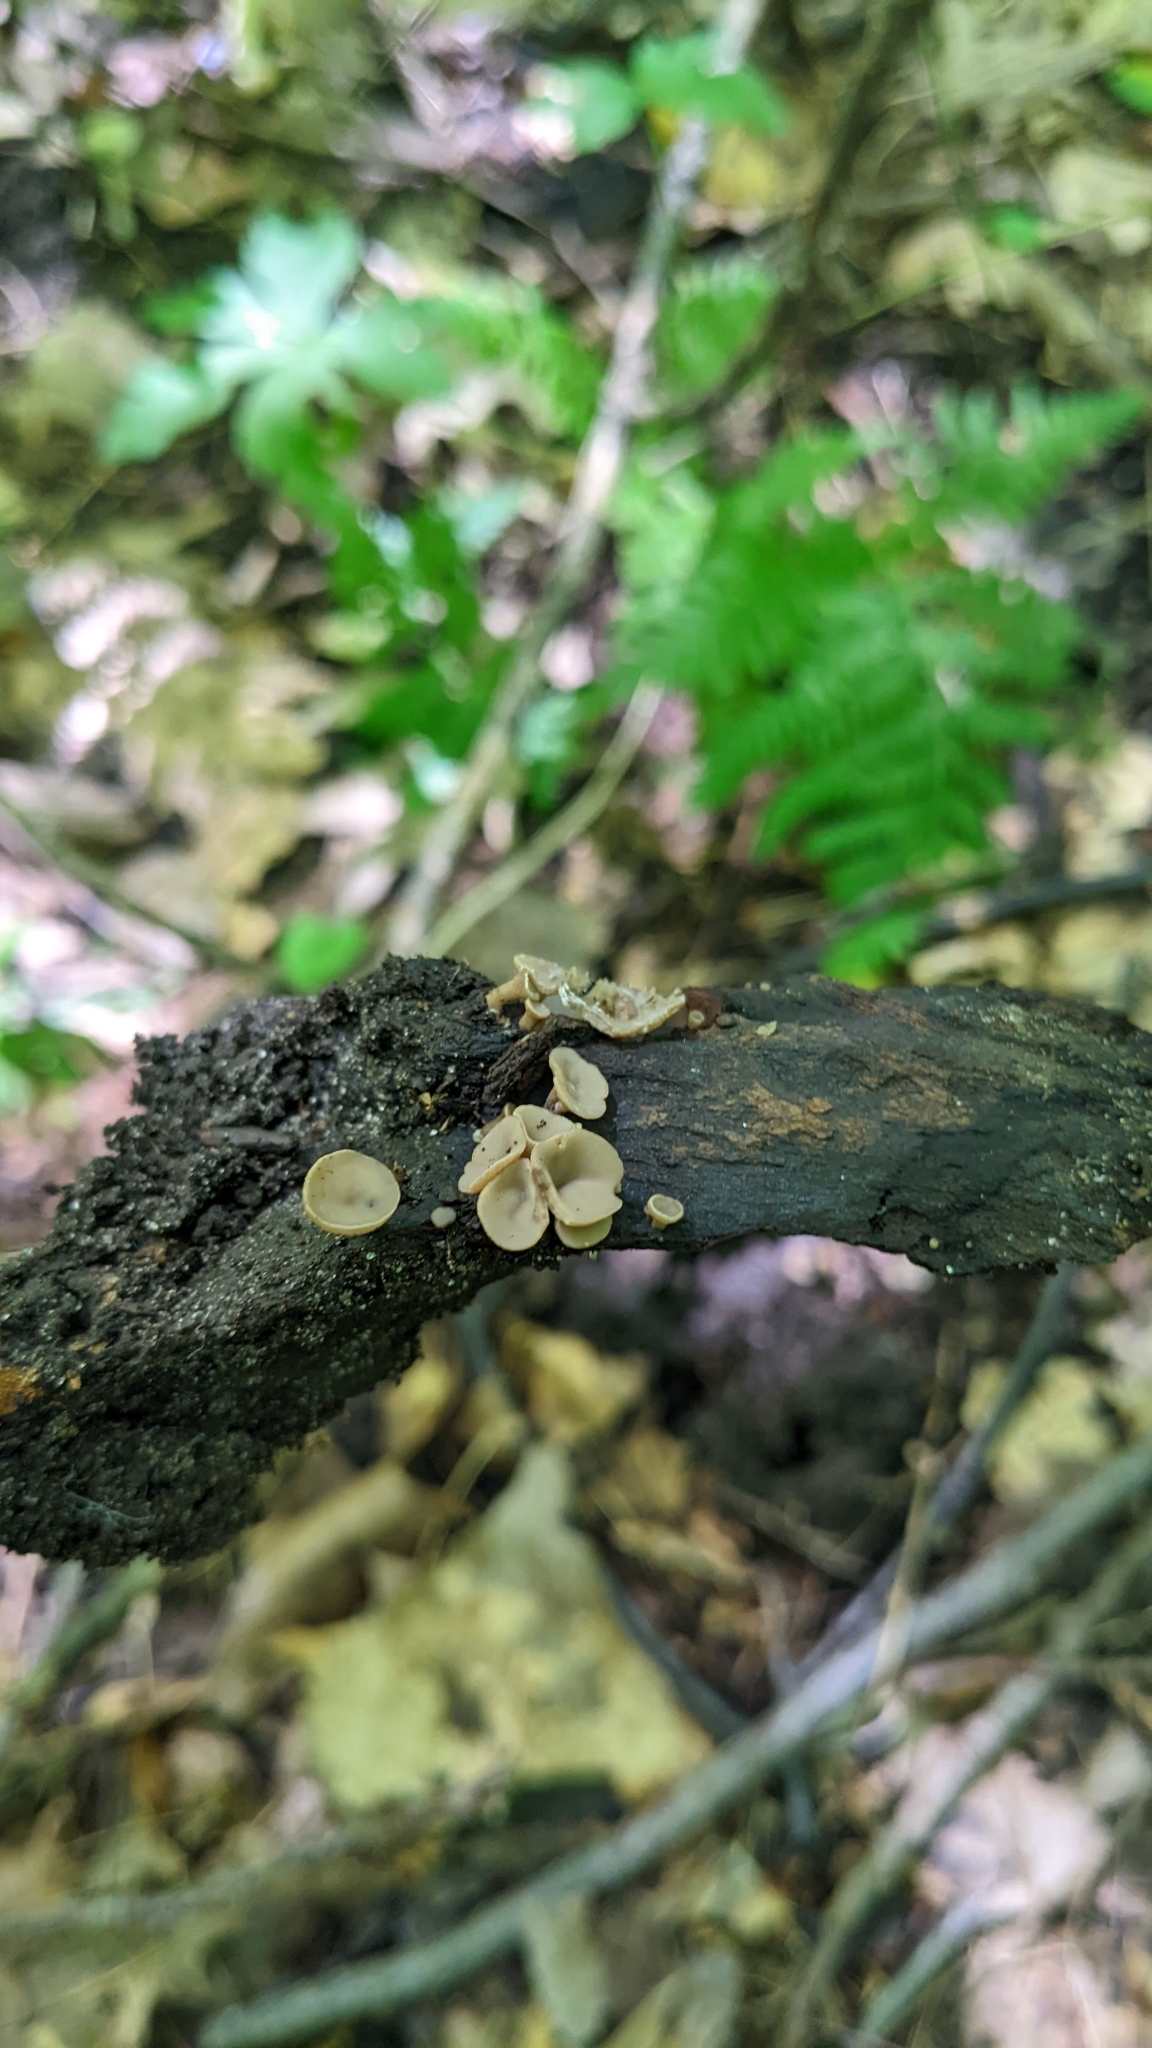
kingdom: Fungi
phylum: Ascomycota
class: Leotiomycetes
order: Helotiales
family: Helotiaceae
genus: Tatraea
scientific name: Tatraea macrospora
